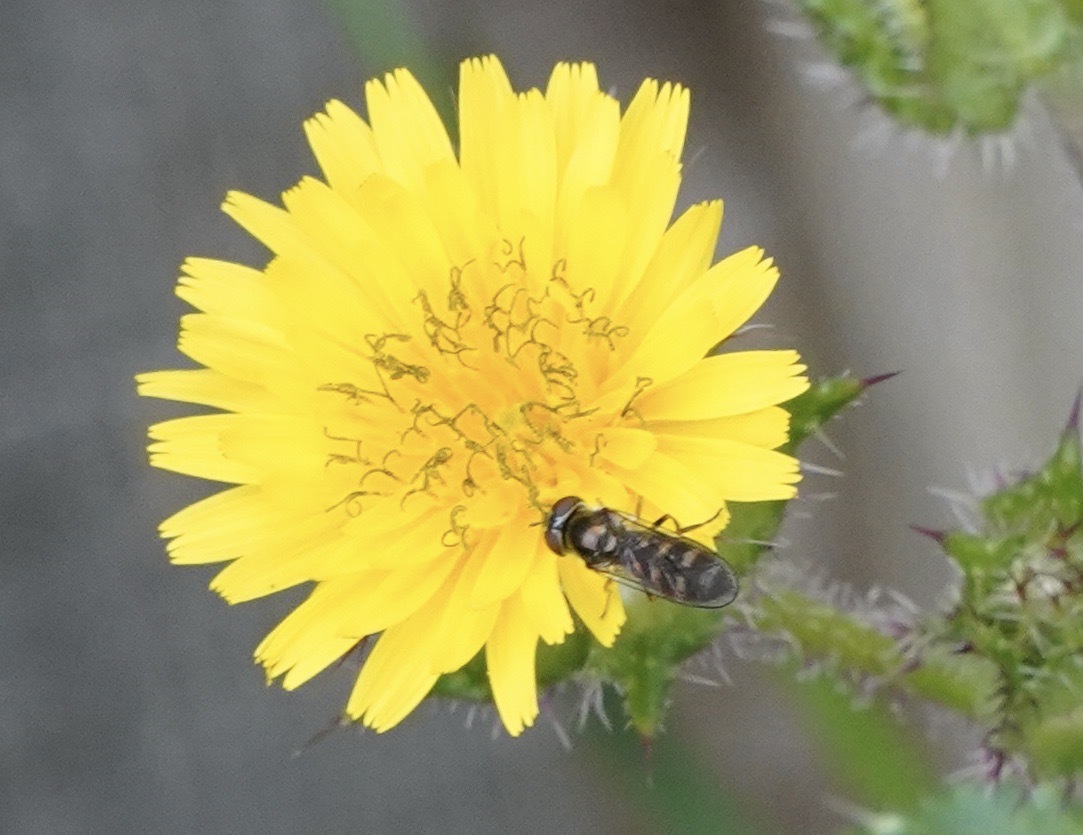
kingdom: Animalia
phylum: Arthropoda
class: Insecta
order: Diptera
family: Syrphidae
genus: Meliscaeva
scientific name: Meliscaeva auricollis
